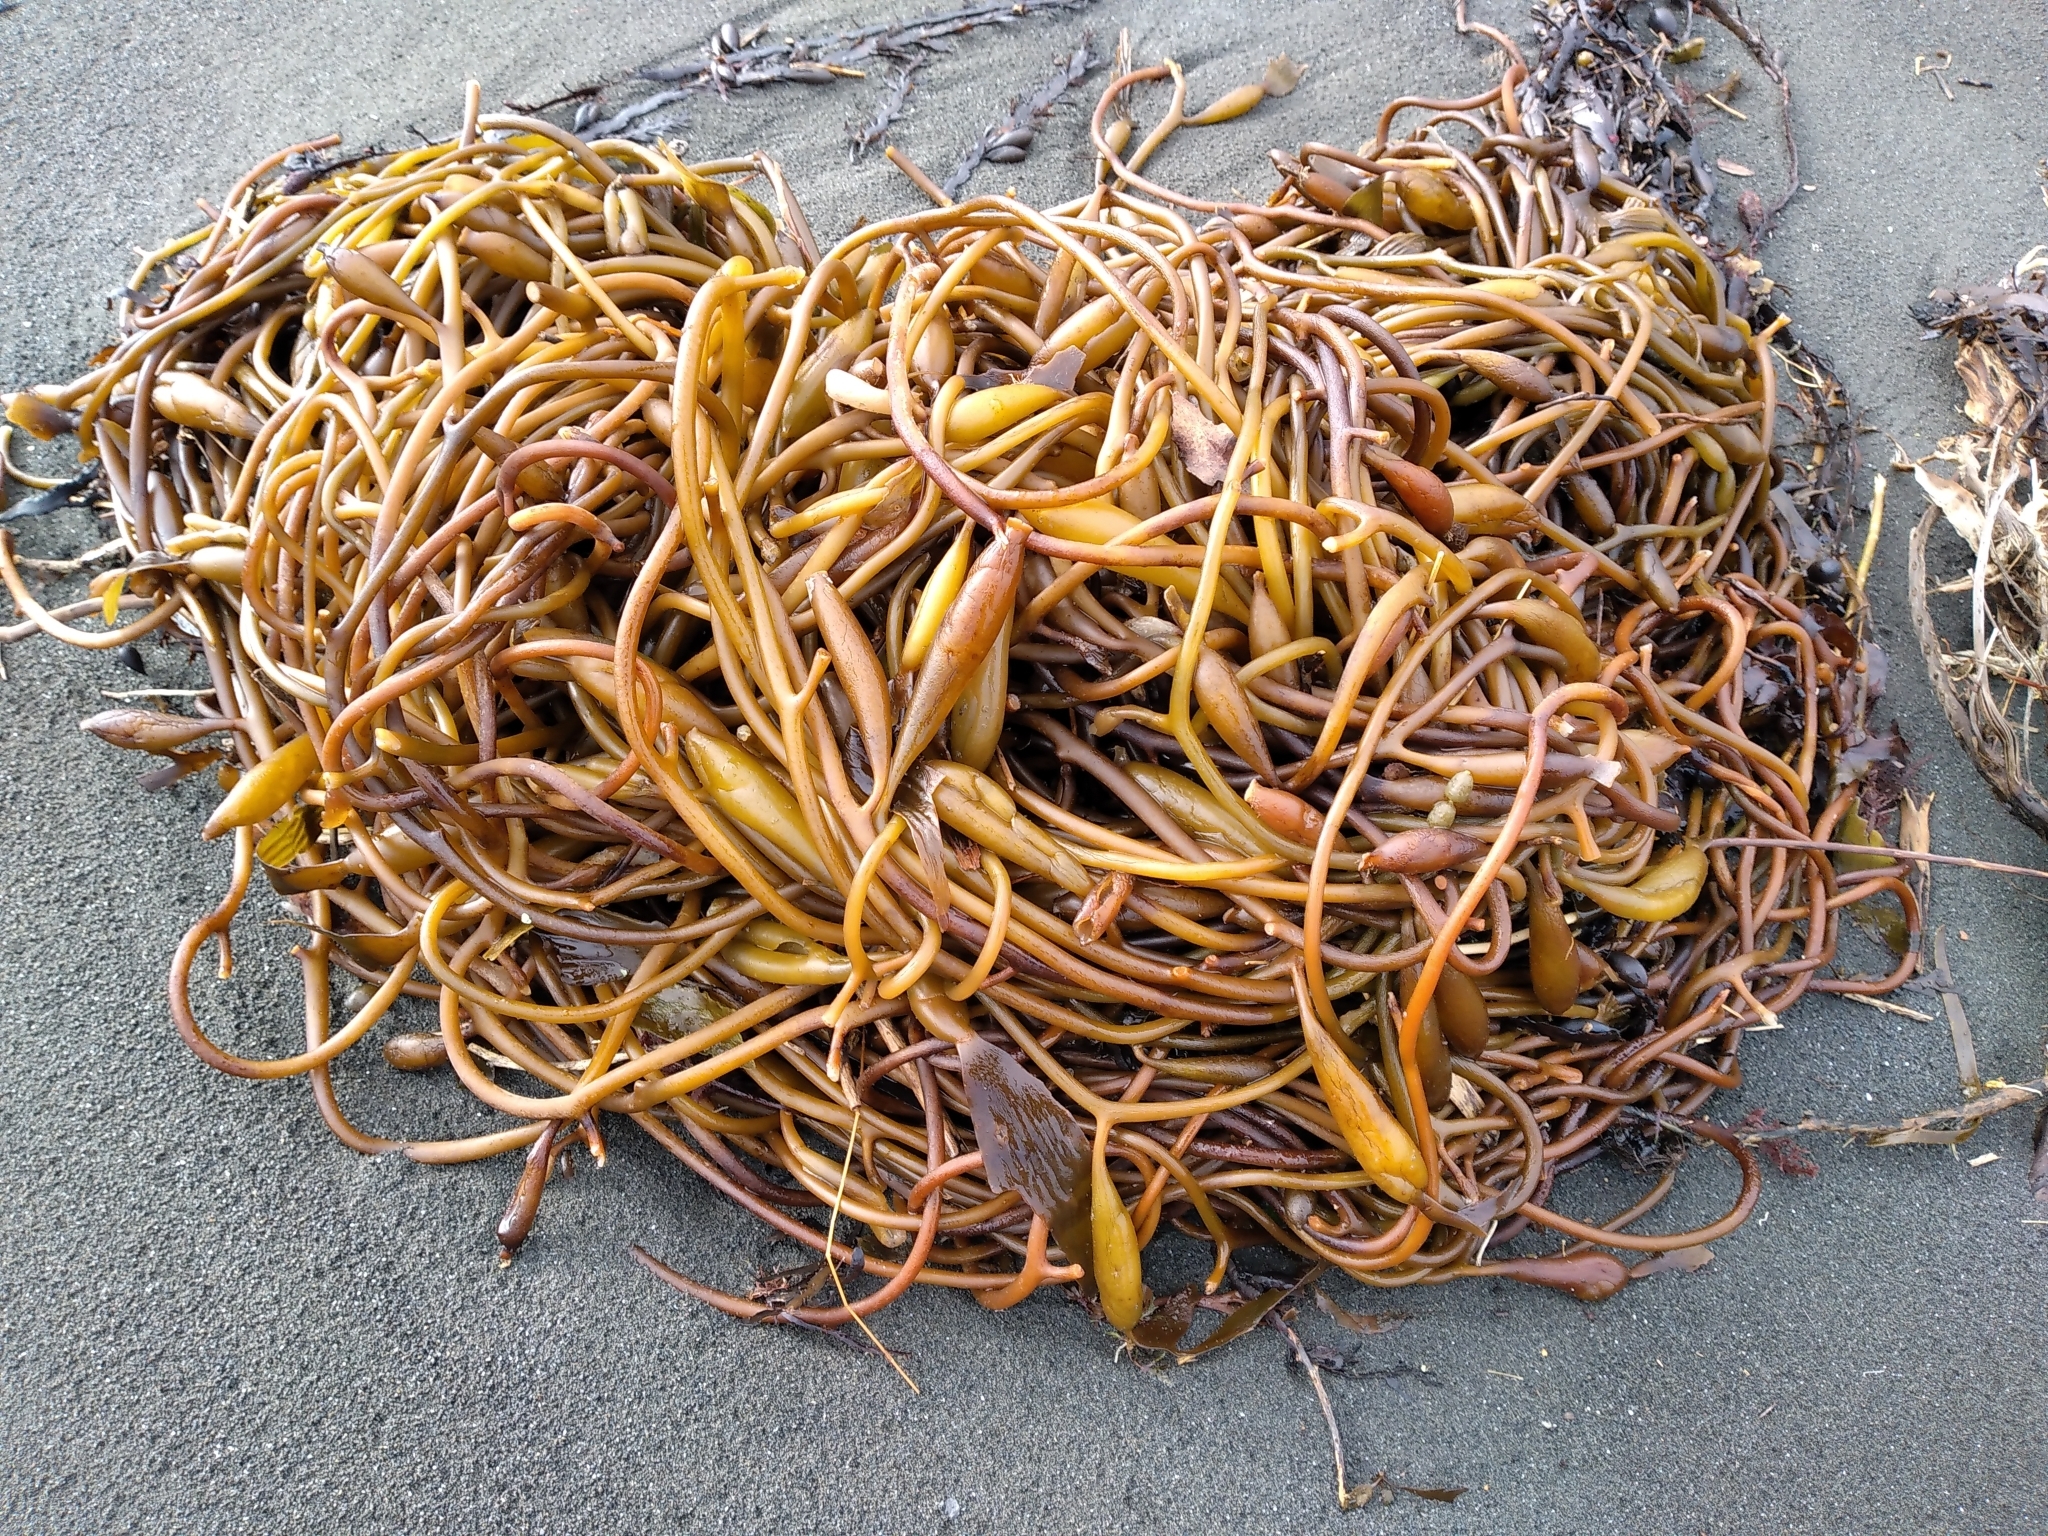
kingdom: Chromista
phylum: Ochrophyta
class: Phaeophyceae
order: Laminariales
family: Laminariaceae
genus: Macrocystis
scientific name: Macrocystis pyrifera
